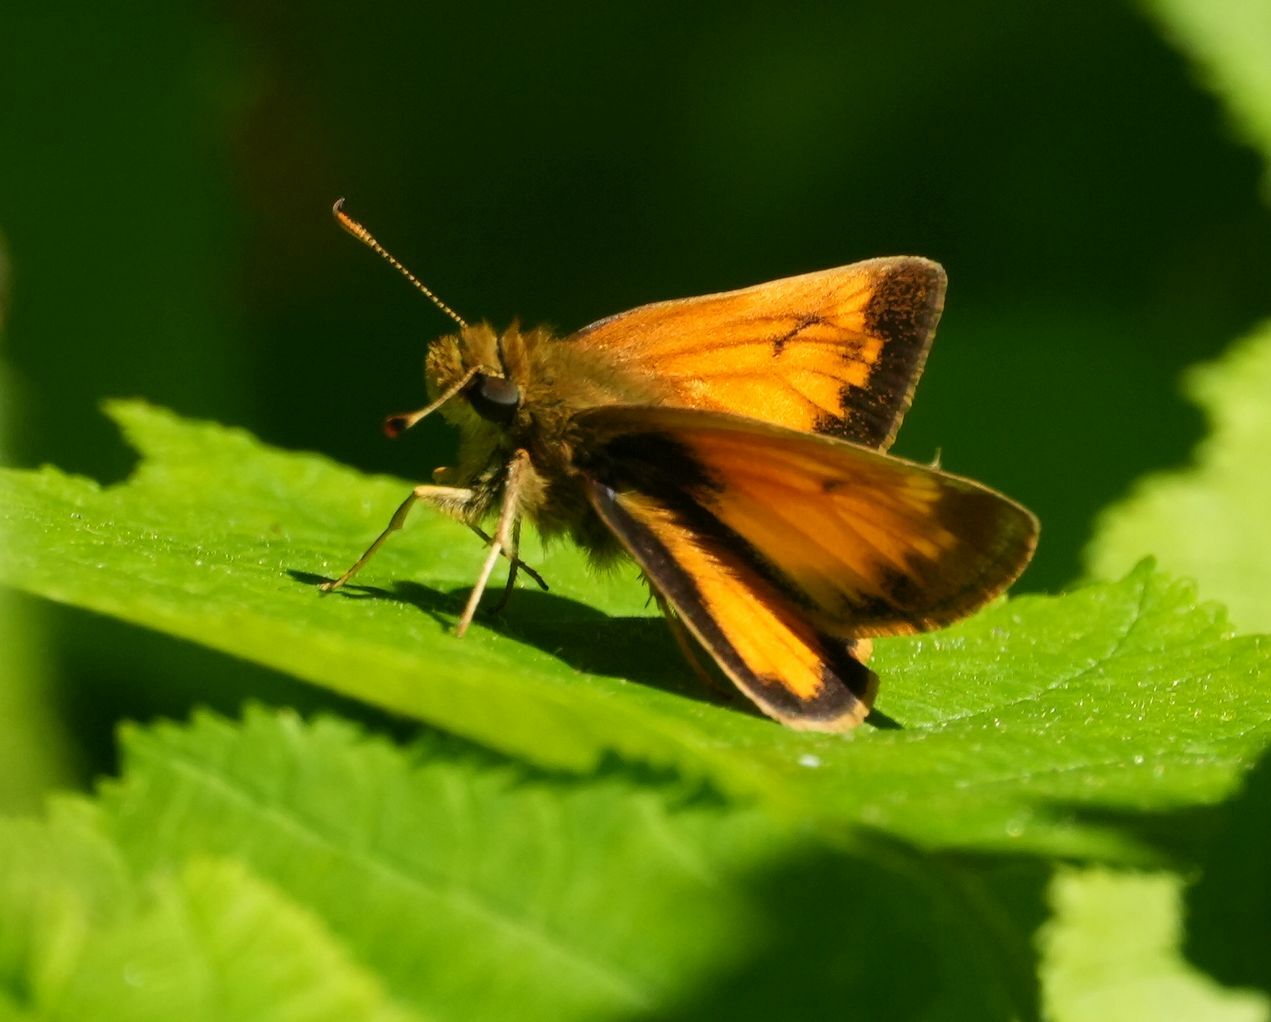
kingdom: Animalia
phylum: Arthropoda
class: Insecta
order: Lepidoptera
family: Hesperiidae
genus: Lon
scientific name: Lon hobomok
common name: Hobomok skipper
